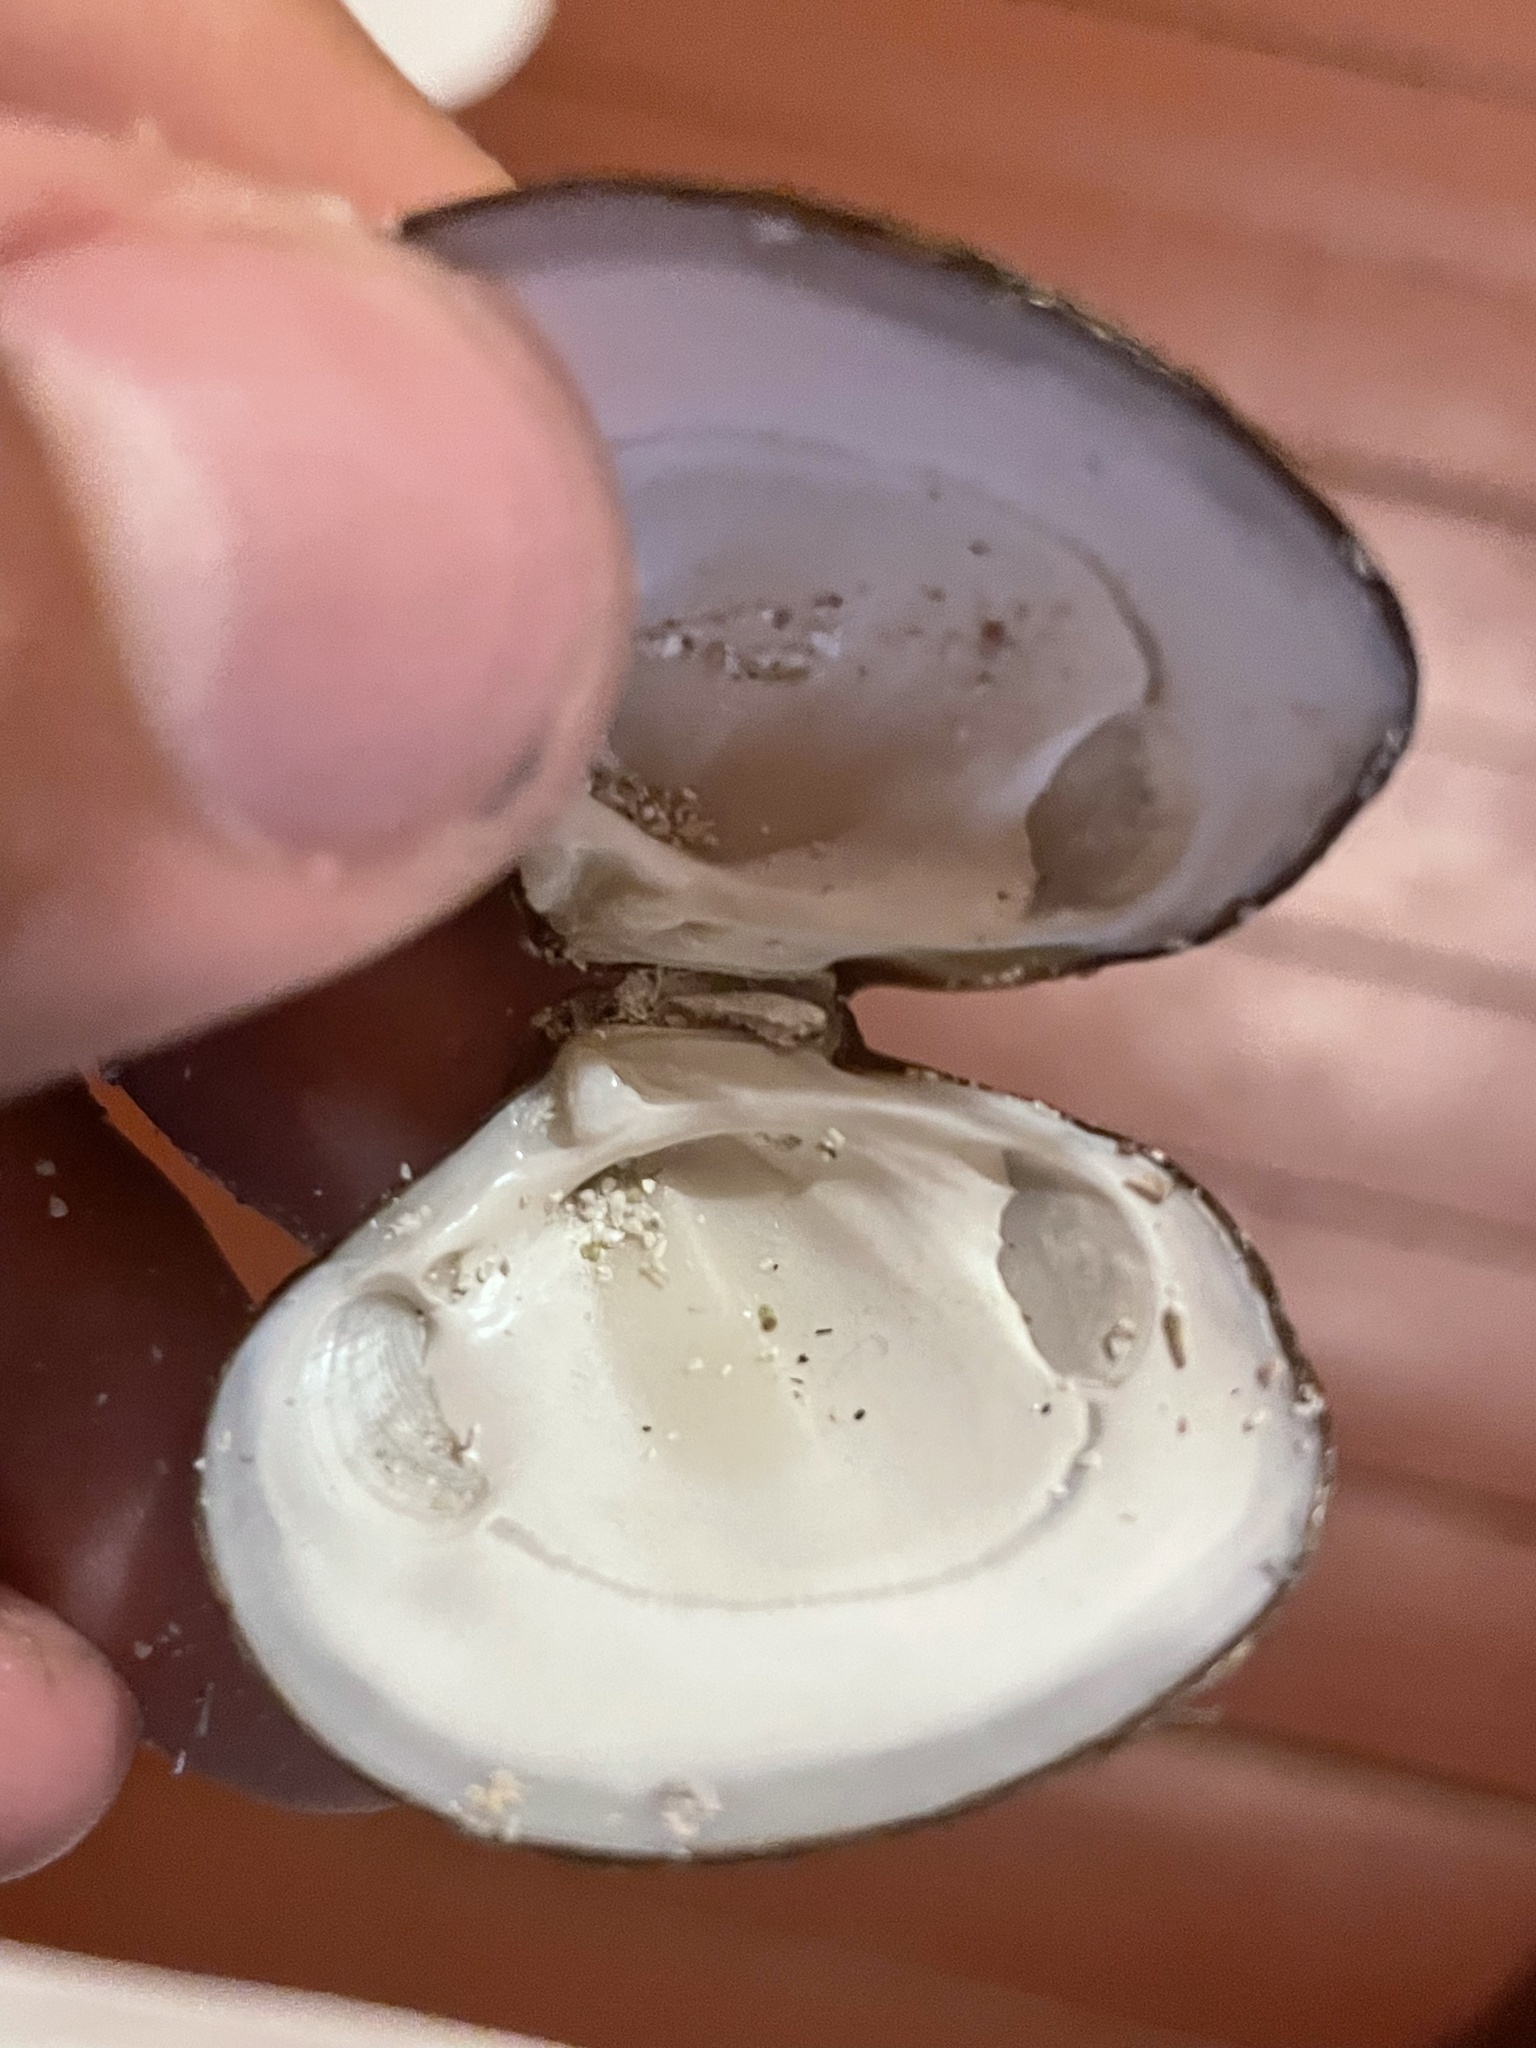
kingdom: Animalia
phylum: Mollusca
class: Bivalvia
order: Carditida
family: Astartidae
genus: Astarte
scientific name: Astarte borealis
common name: Boreal tridonta
